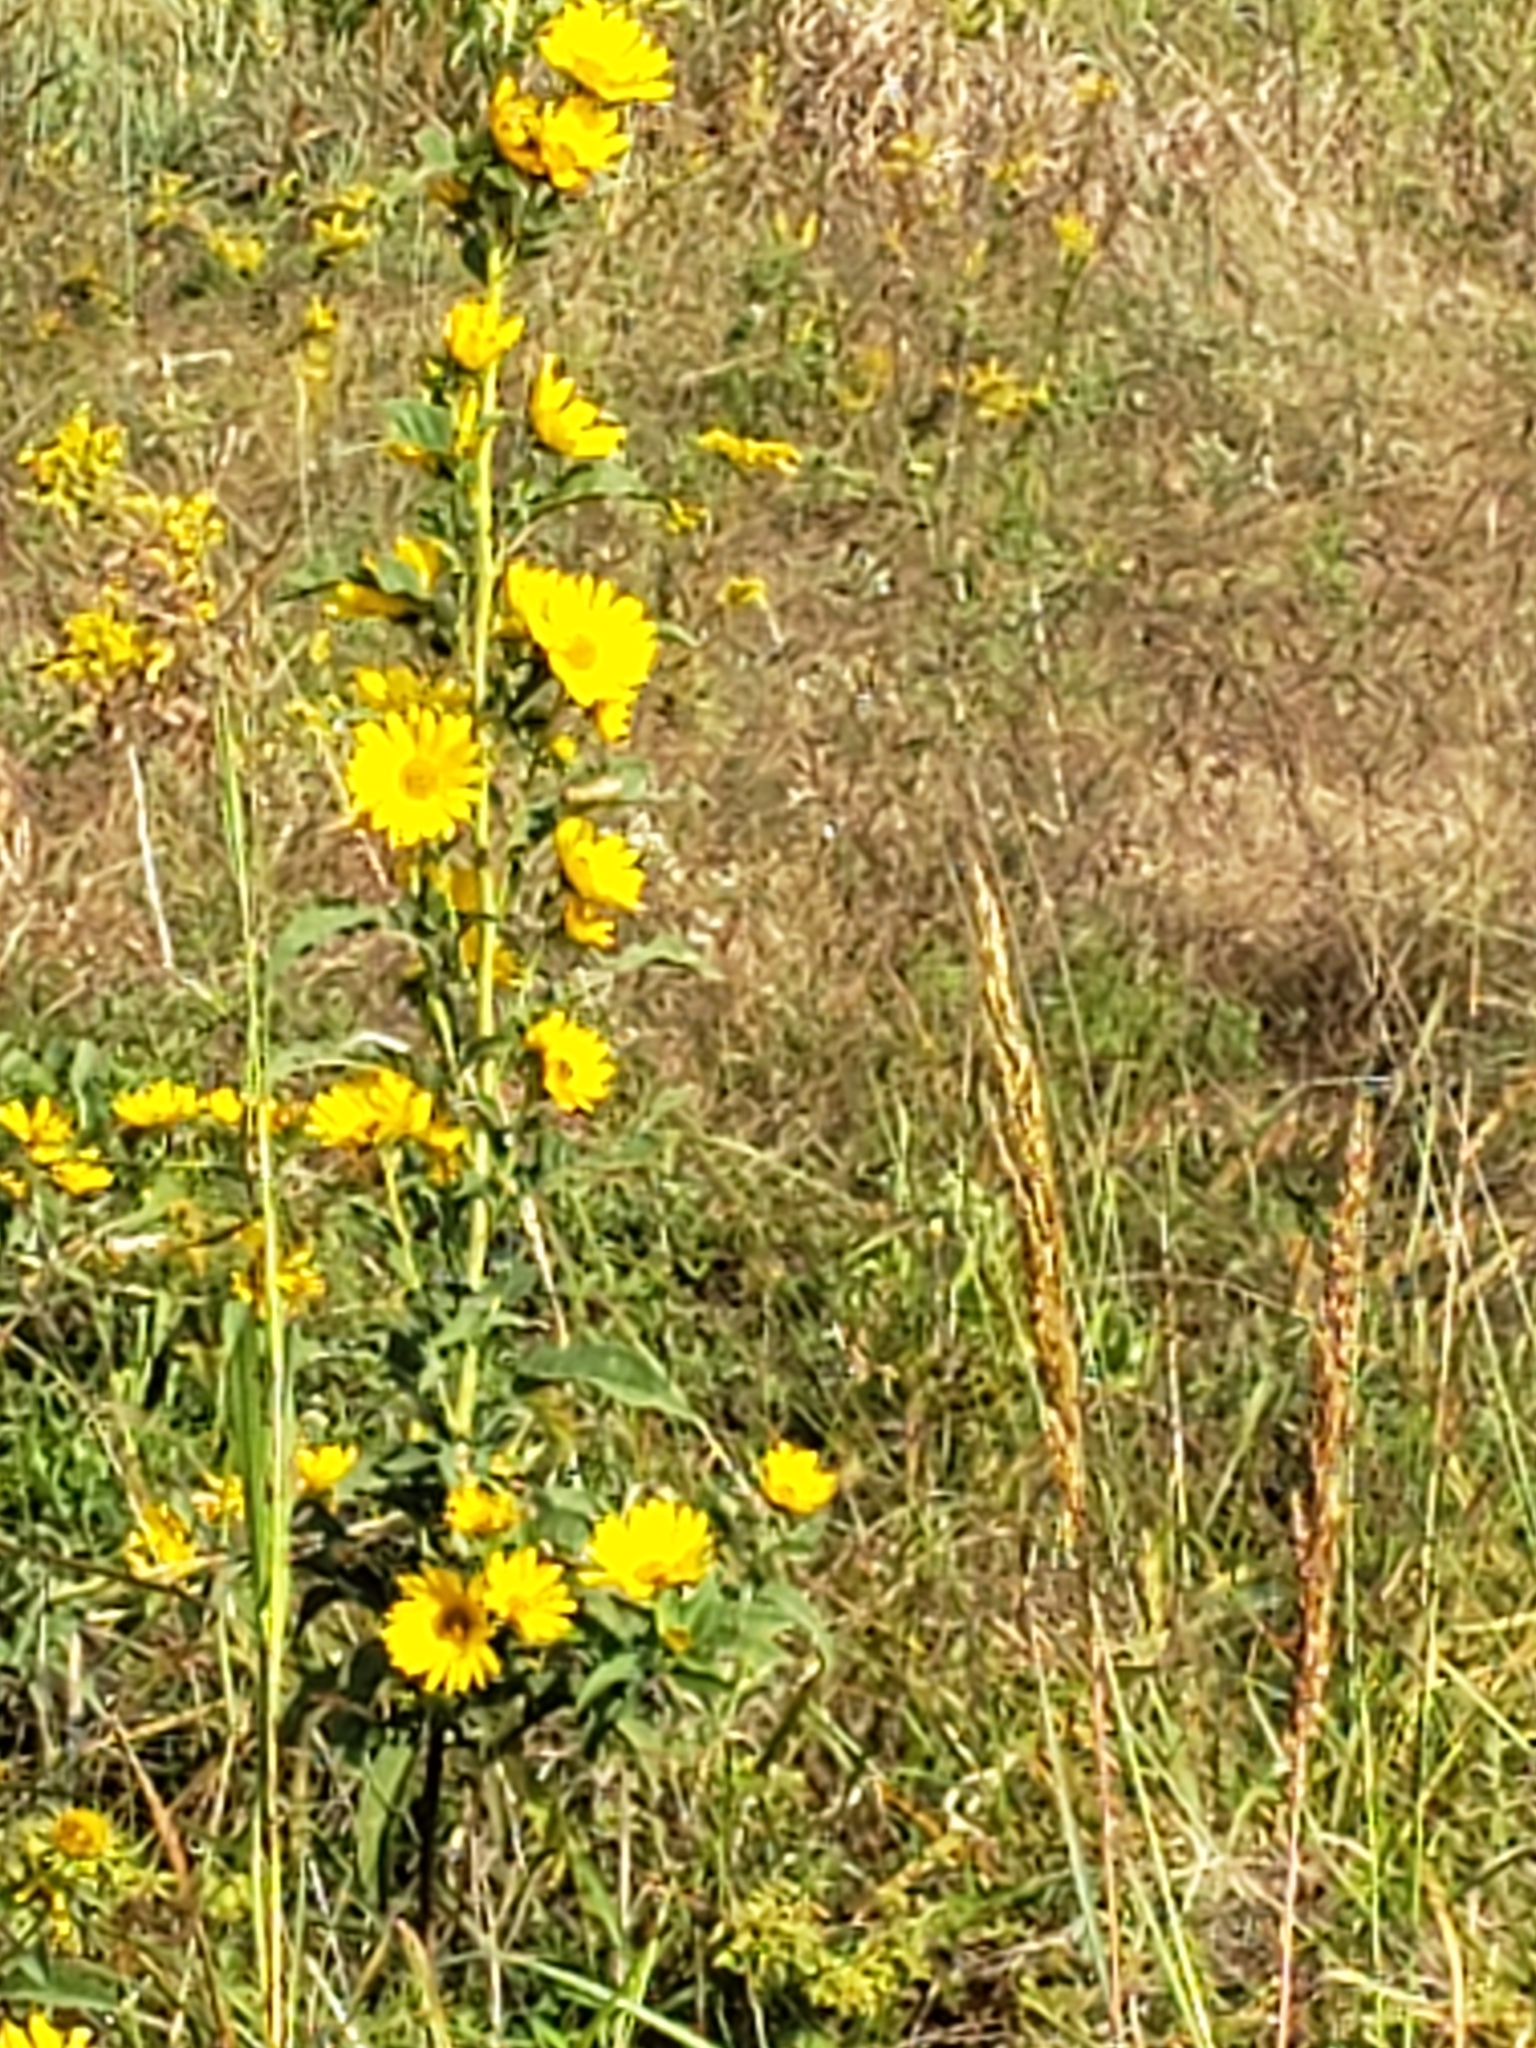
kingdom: Plantae
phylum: Tracheophyta
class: Magnoliopsida
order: Asterales
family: Asteraceae
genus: Helianthus
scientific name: Helianthus maximiliani
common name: Maximilian's sunflower
